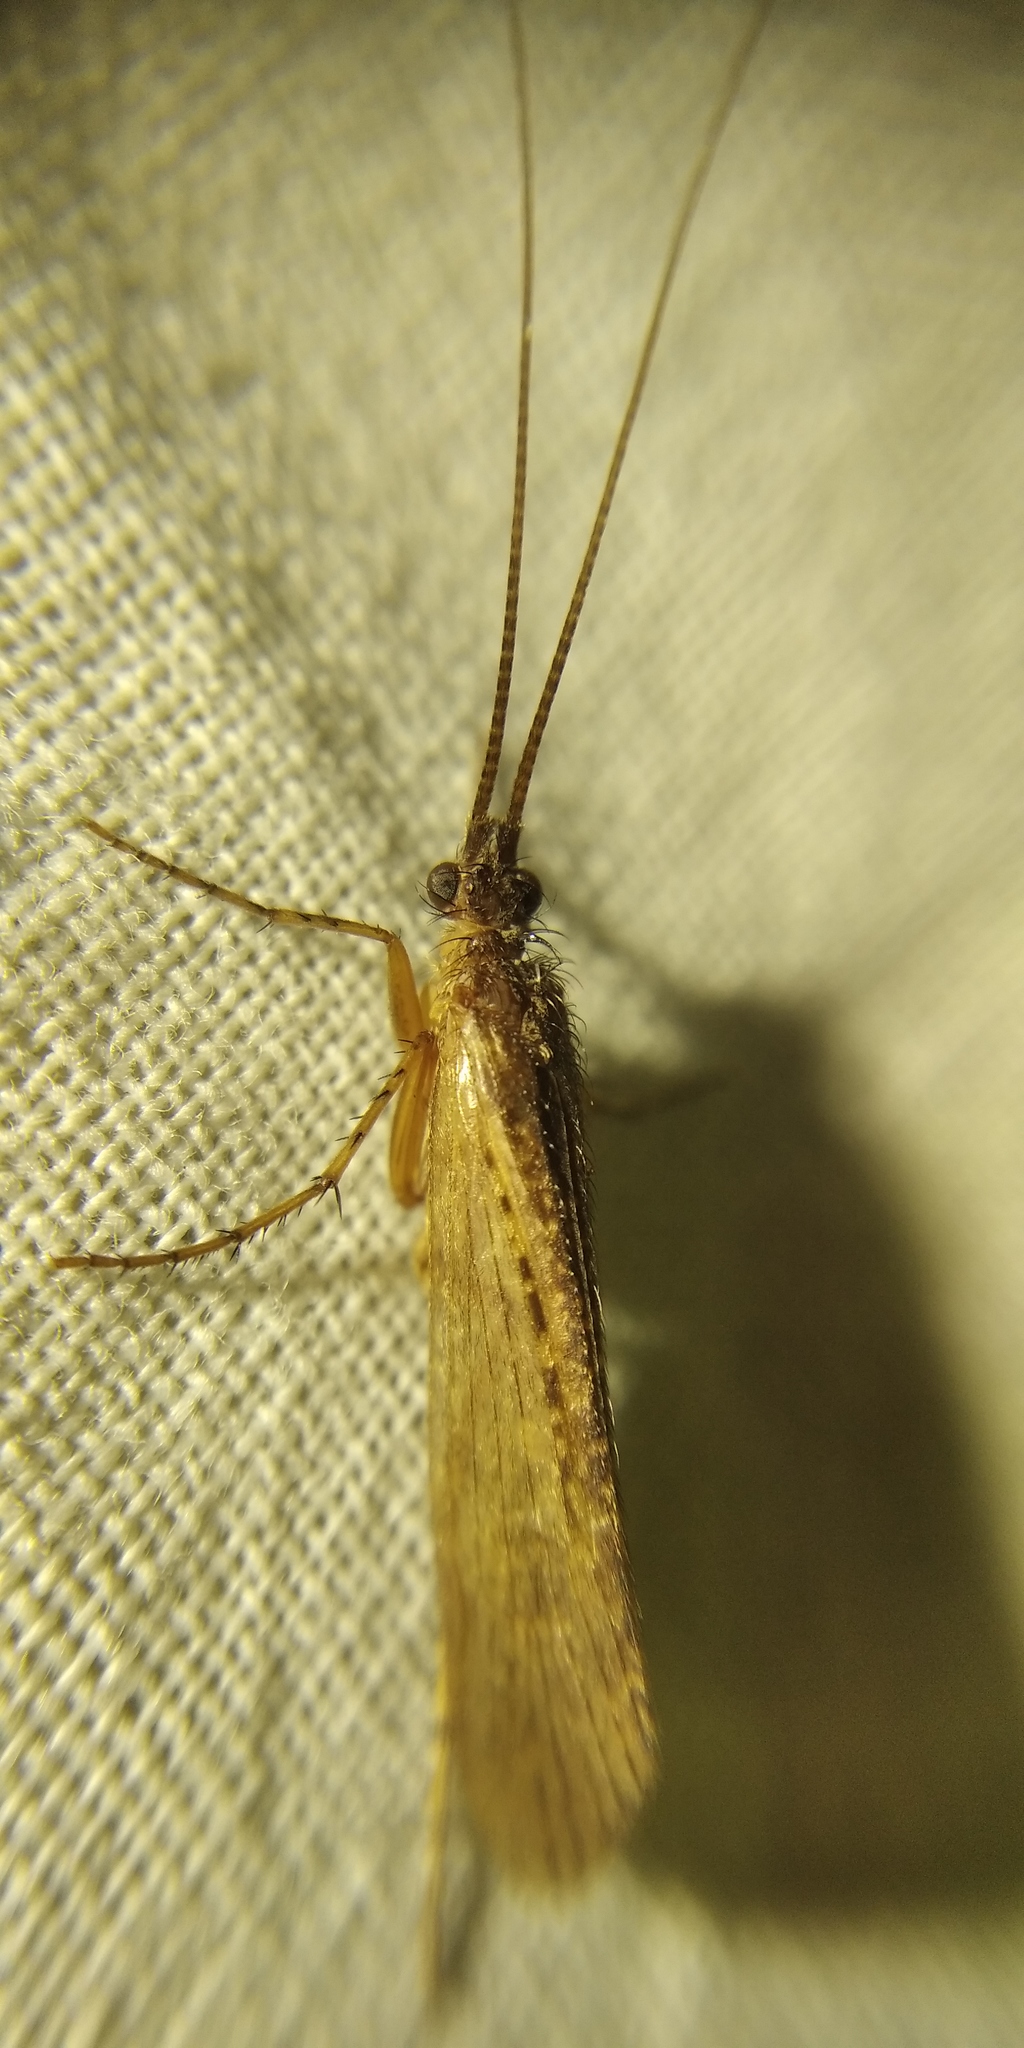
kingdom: Animalia
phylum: Arthropoda
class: Insecta
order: Trichoptera
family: Limnephilidae
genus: Limnephilus
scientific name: Limnephilus affinis
